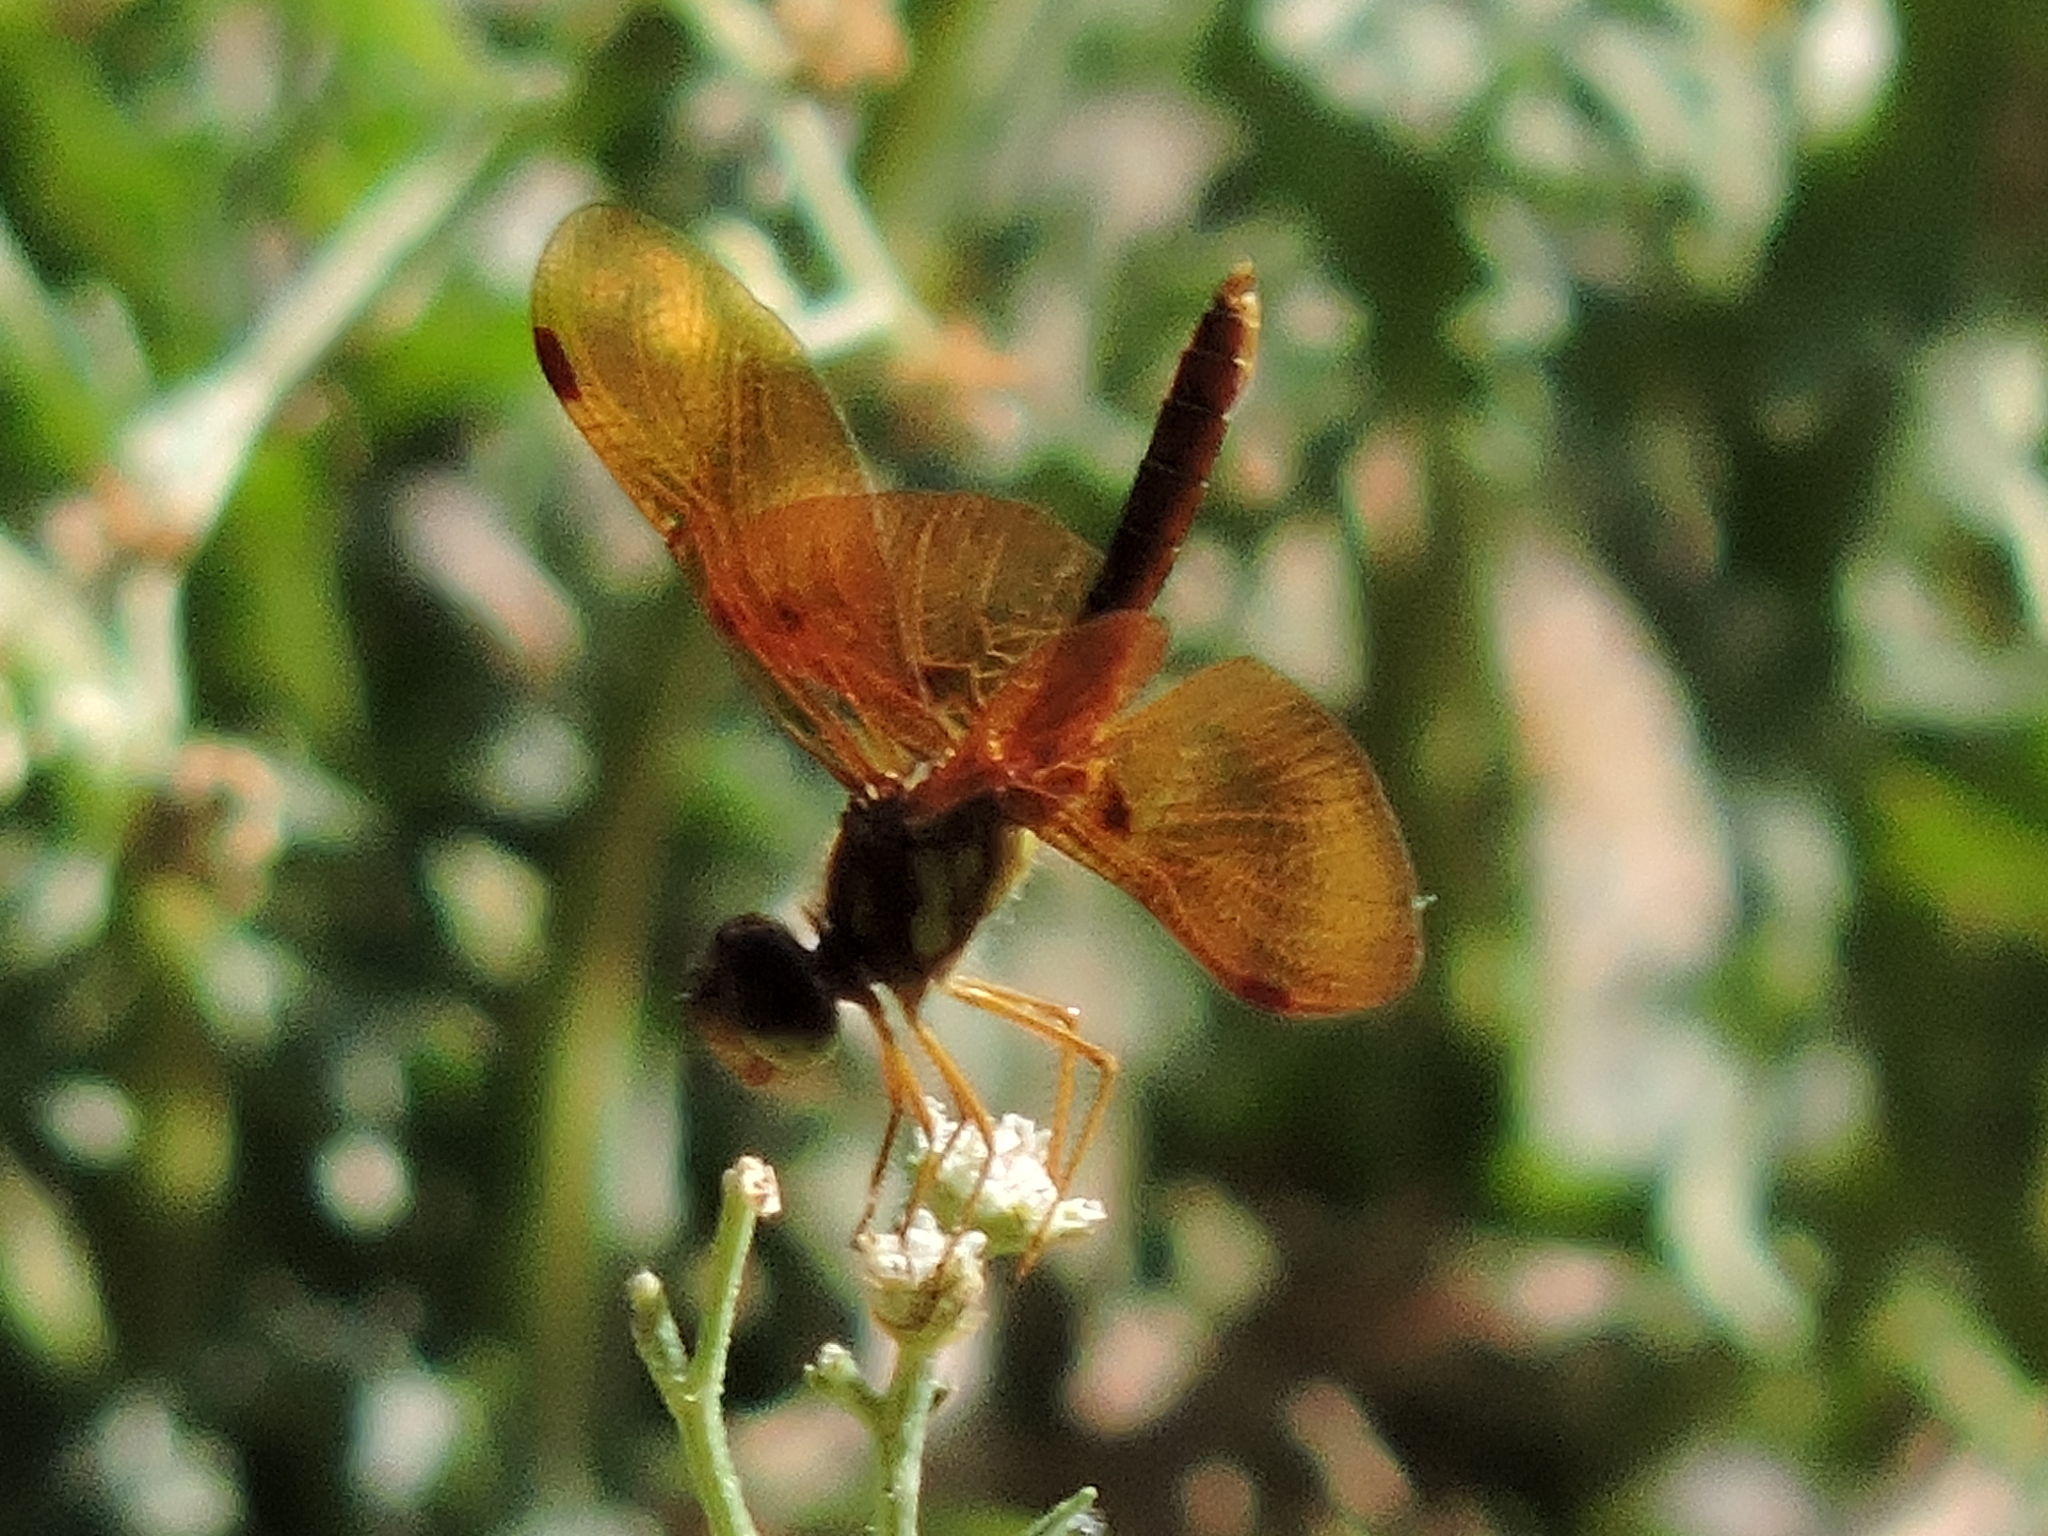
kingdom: Animalia
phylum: Arthropoda
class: Insecta
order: Odonata
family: Libellulidae
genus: Perithemis
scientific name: Perithemis tenera
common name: Eastern amberwing
